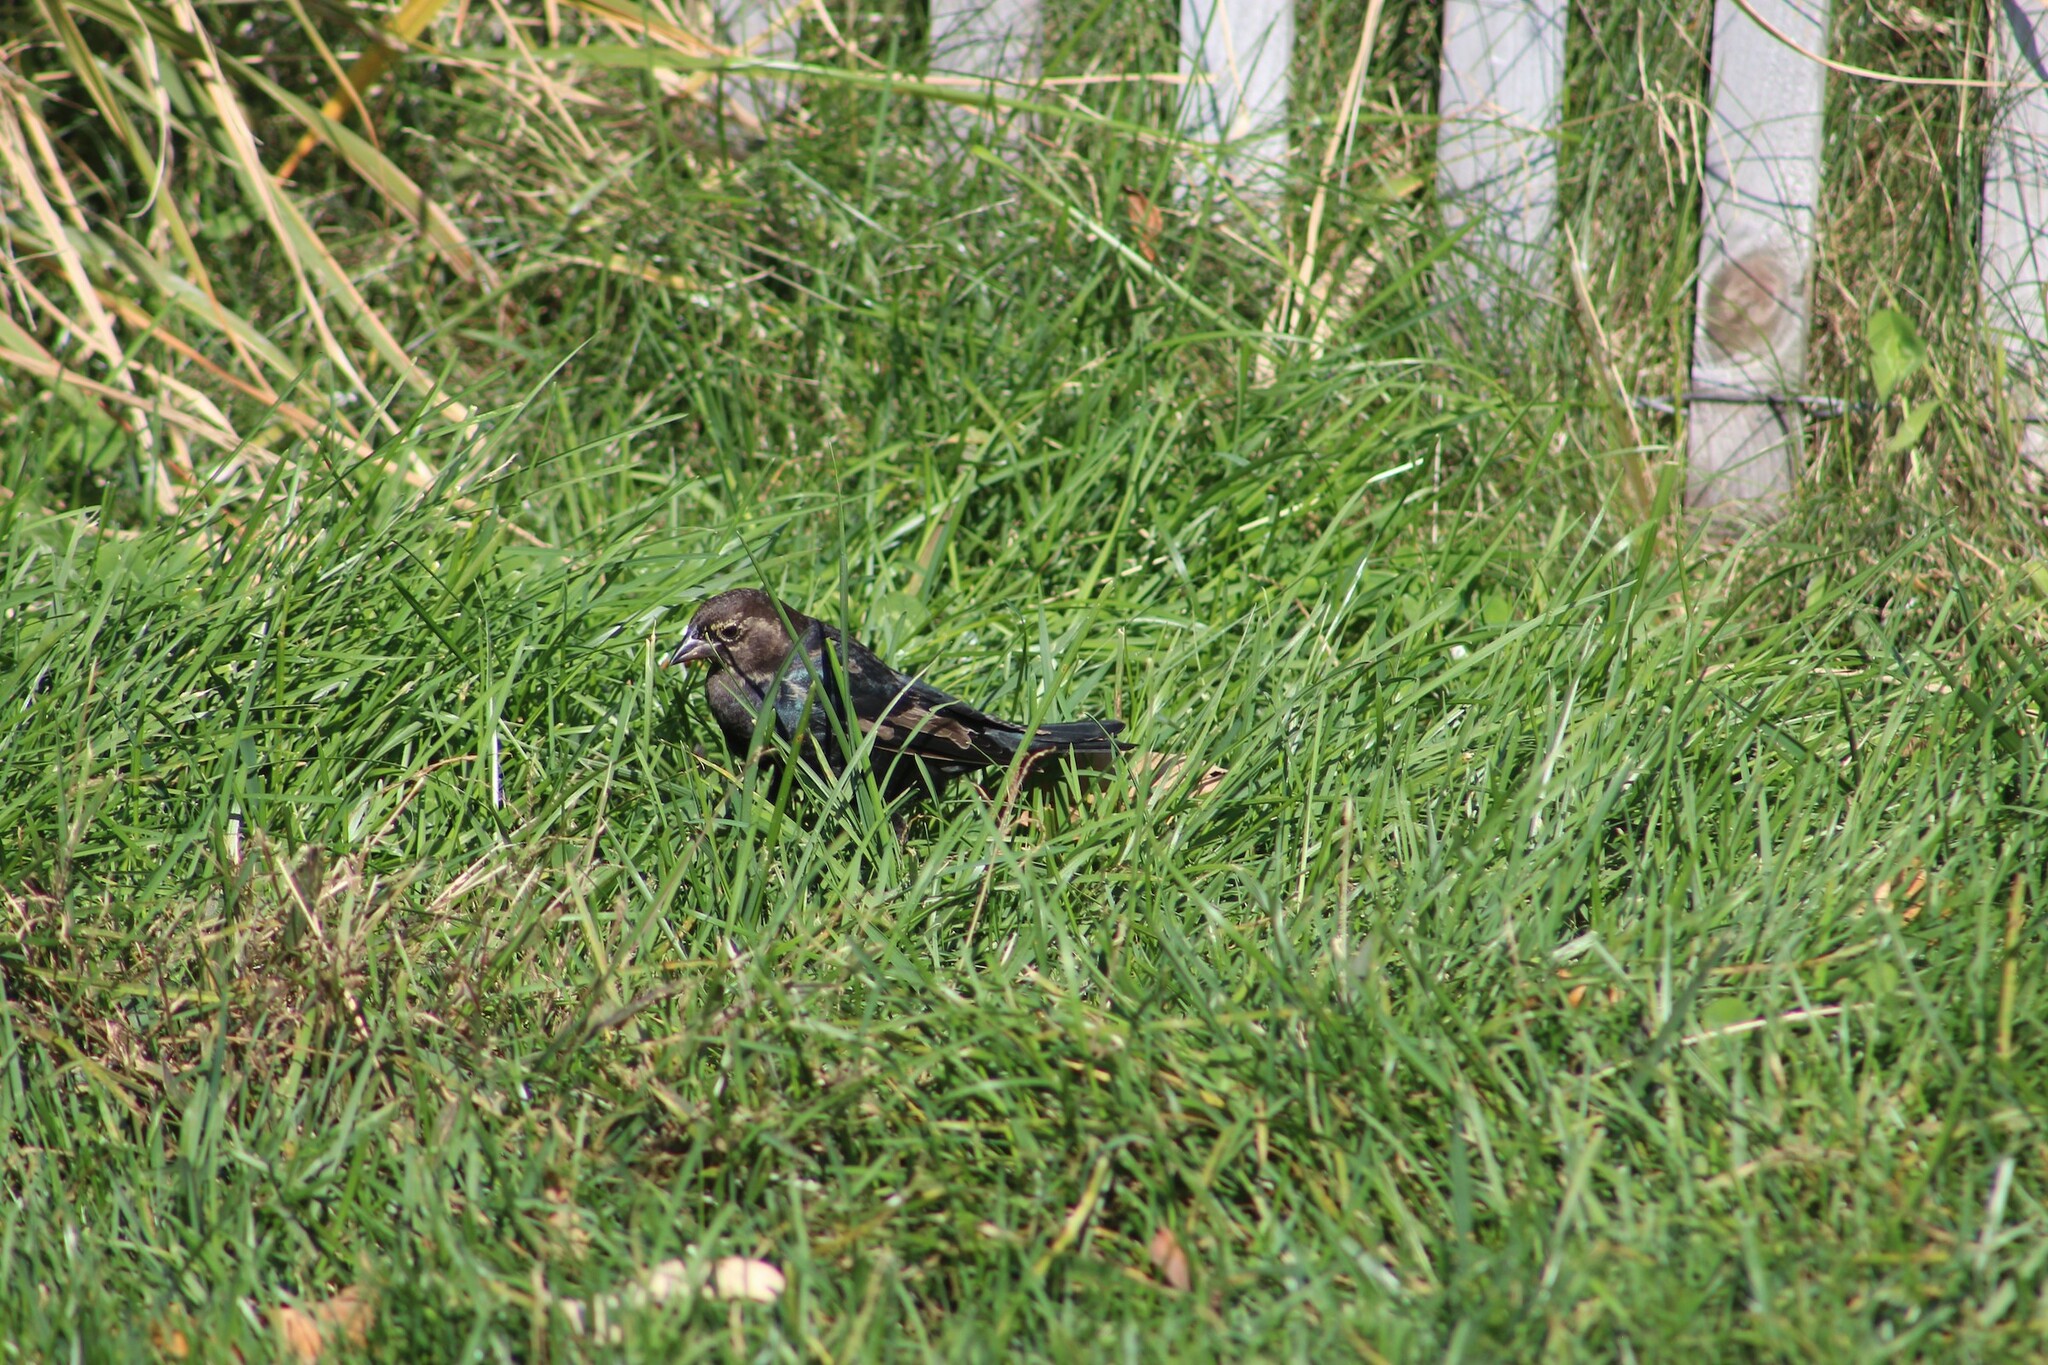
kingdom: Animalia
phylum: Chordata
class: Aves
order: Passeriformes
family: Icteridae
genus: Molothrus
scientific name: Molothrus ater
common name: Brown-headed cowbird
